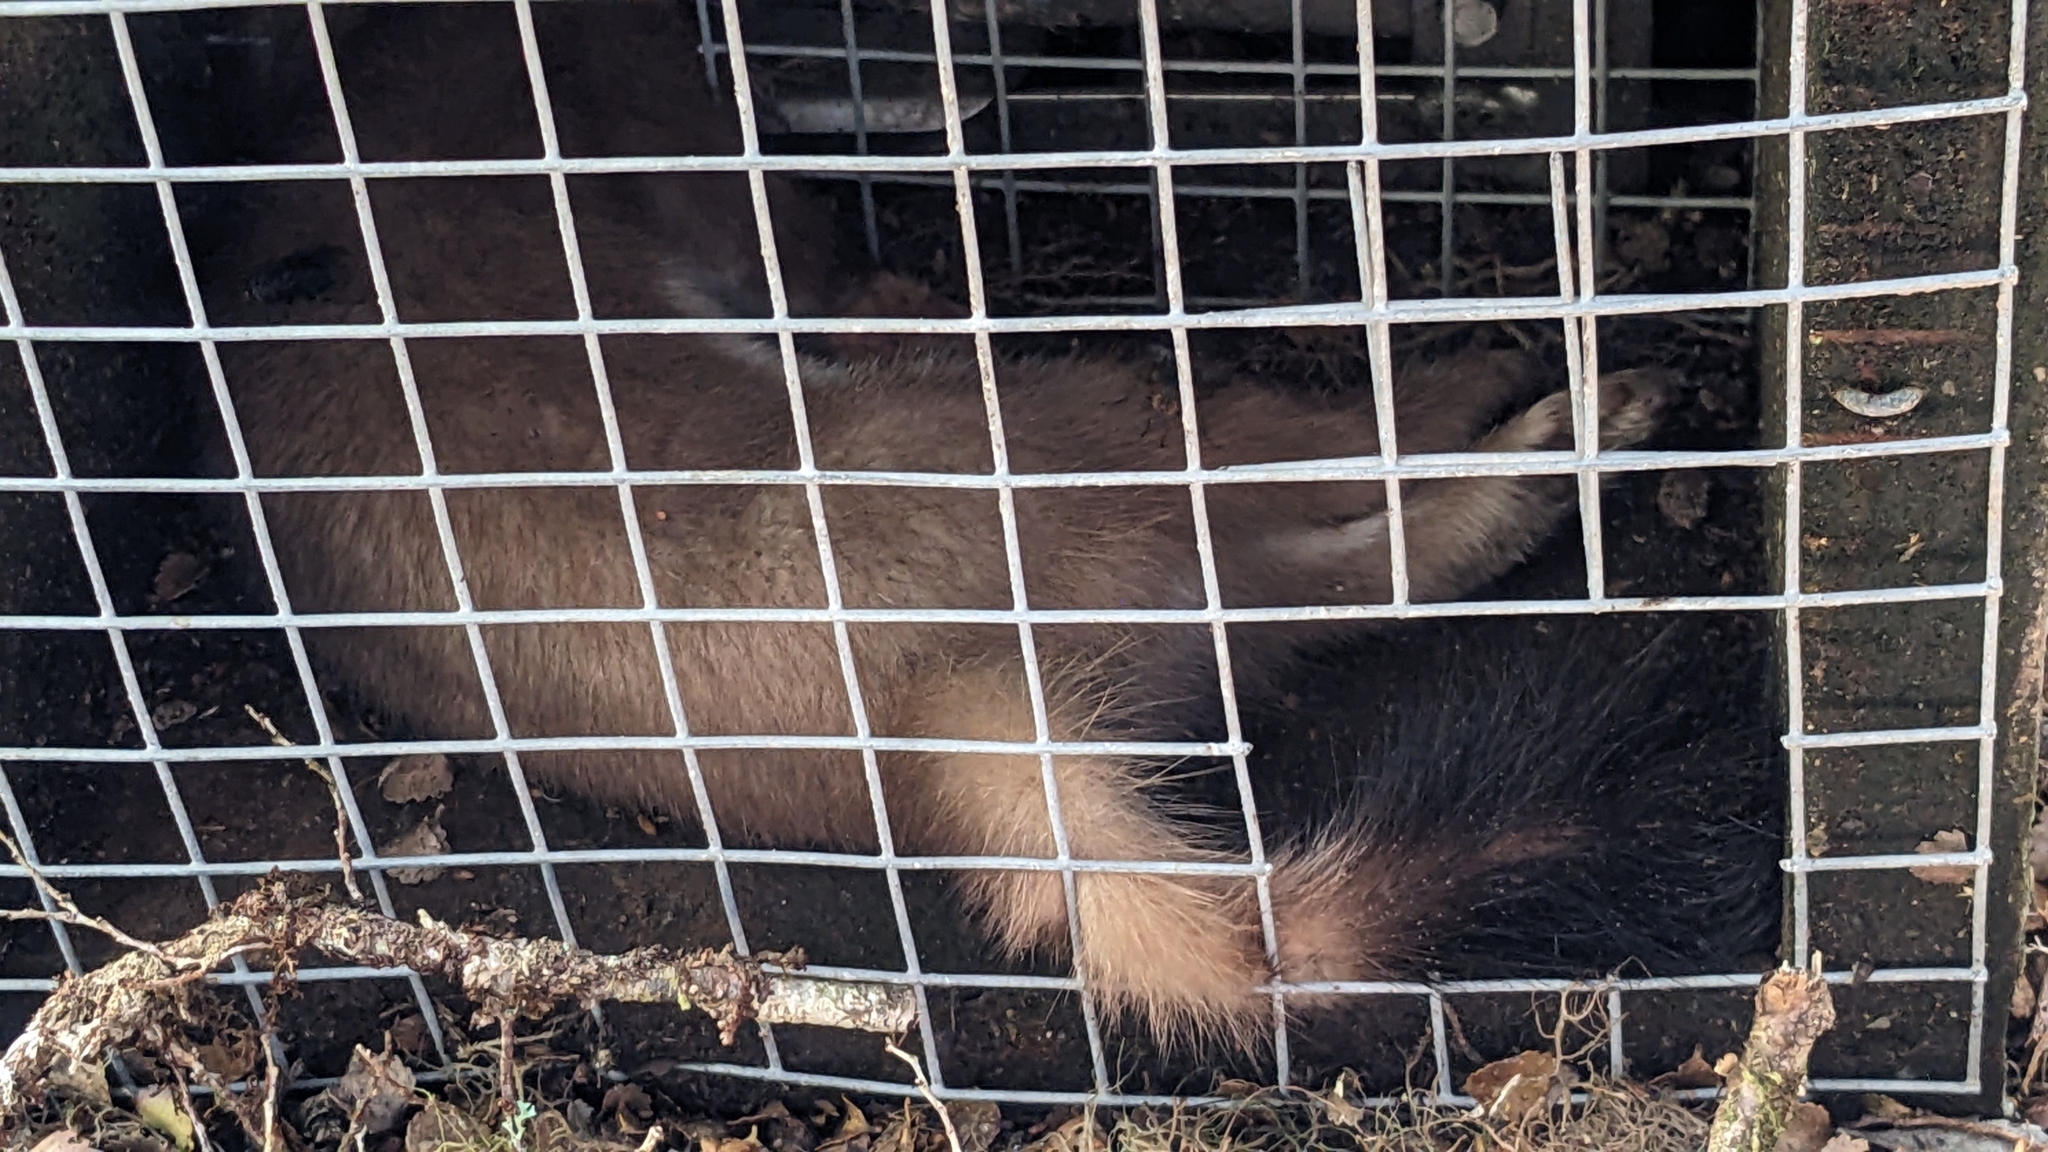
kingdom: Animalia
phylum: Chordata
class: Mammalia
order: Carnivora
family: Mustelidae
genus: Mustela
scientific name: Mustela erminea
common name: Stoat
